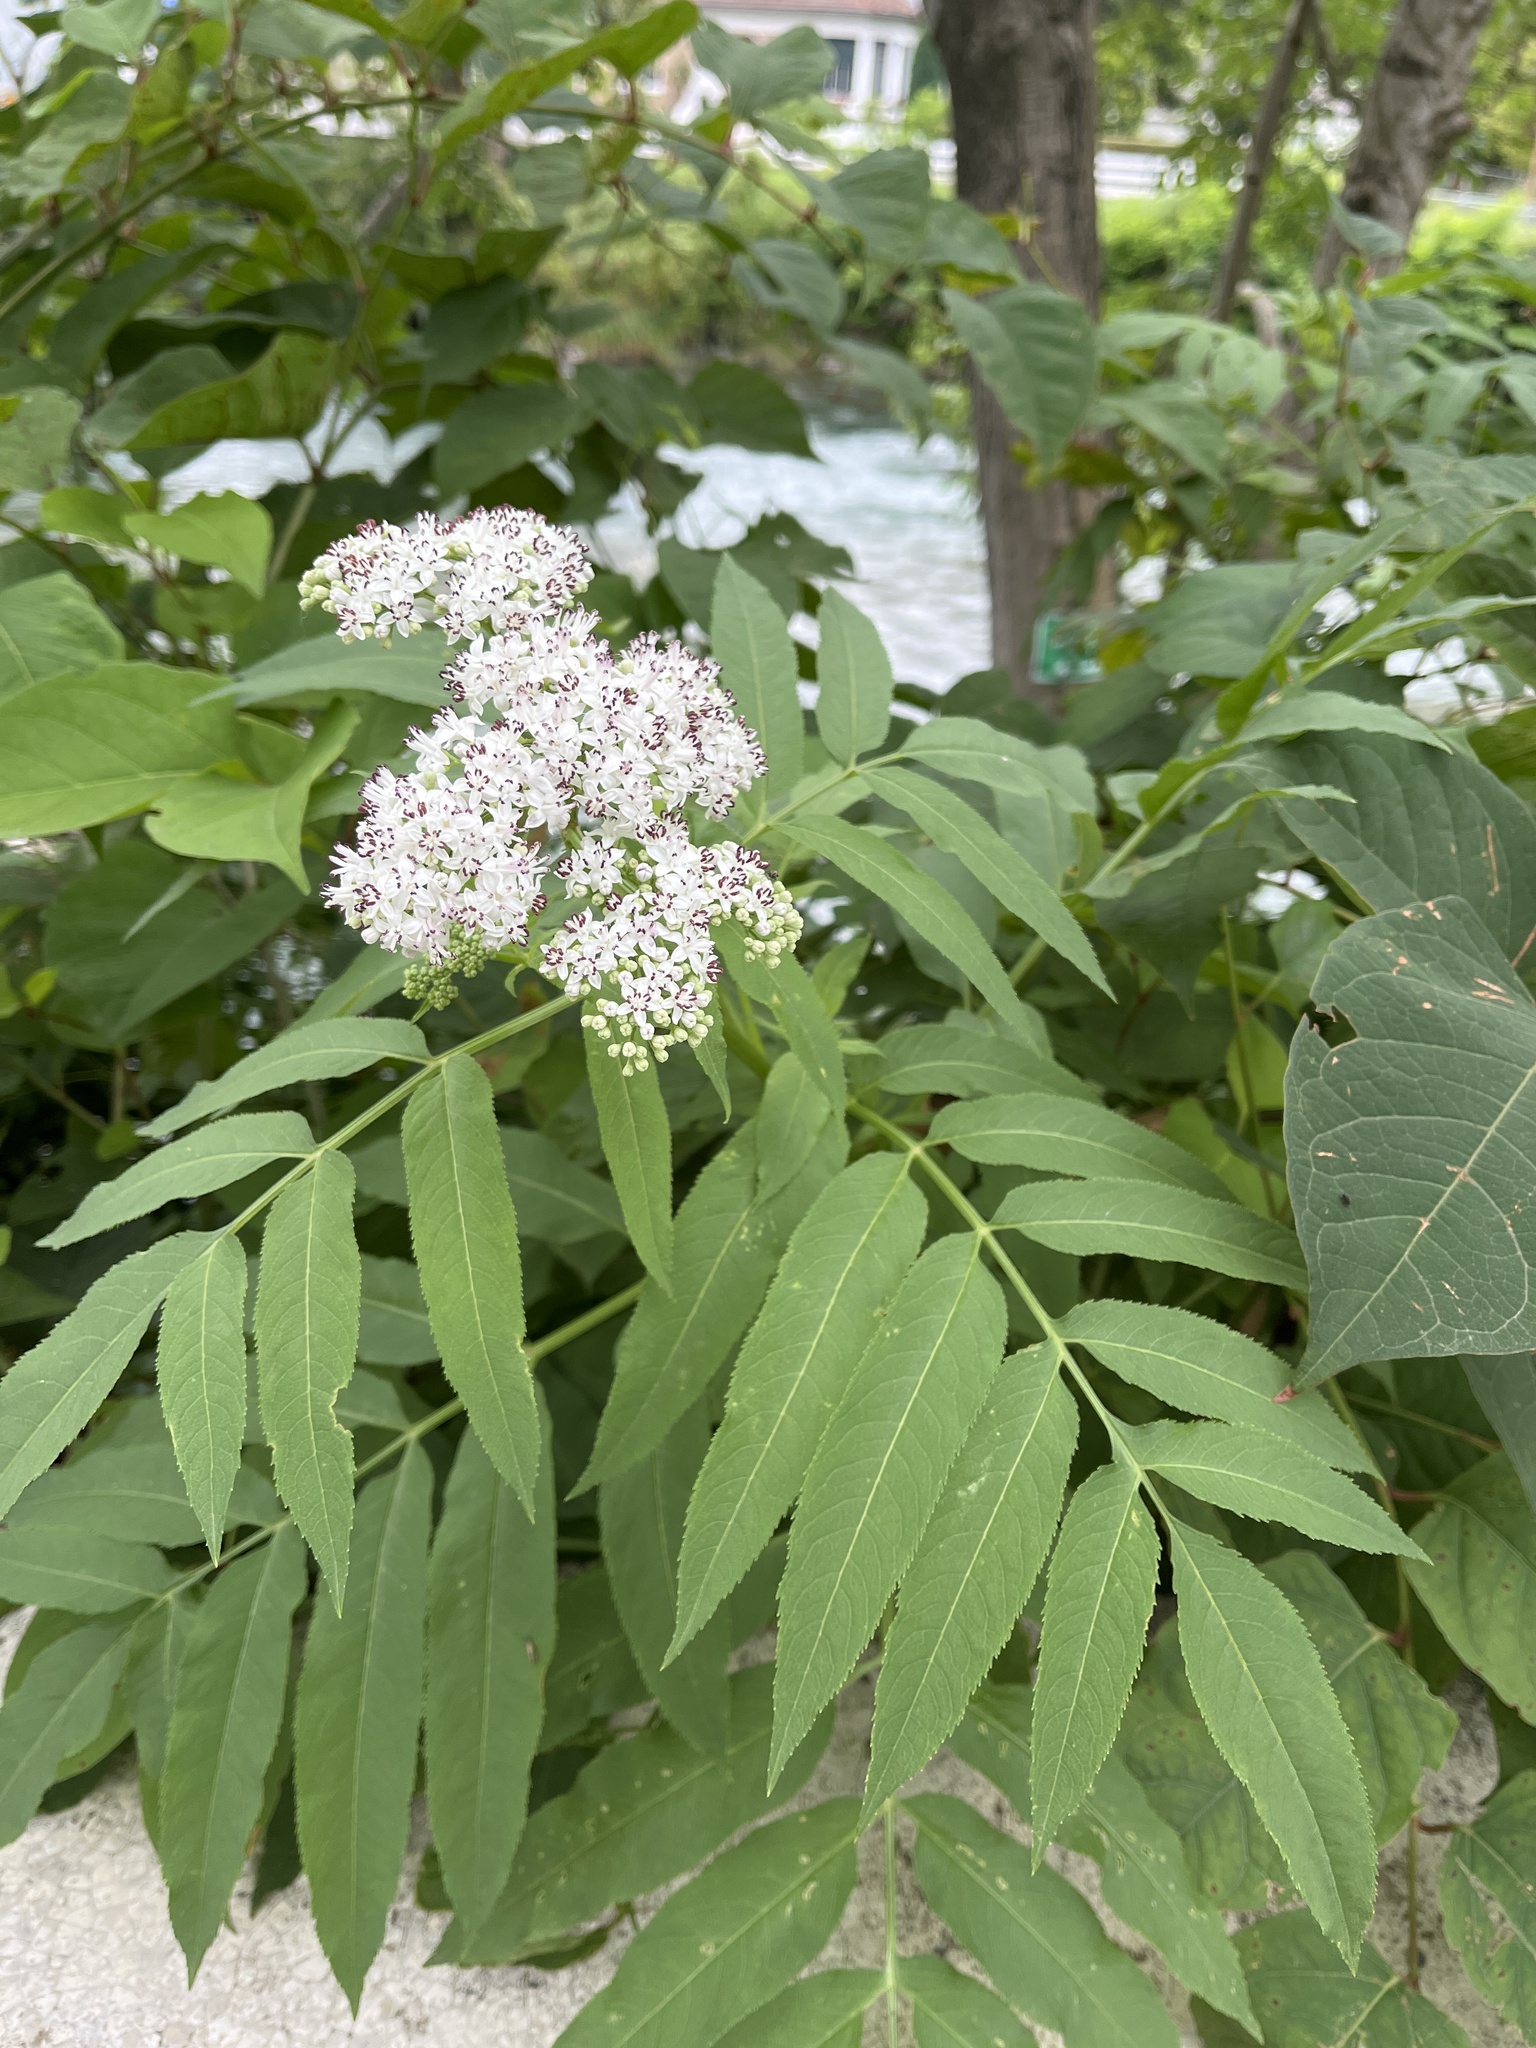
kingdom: Plantae
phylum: Tracheophyta
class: Magnoliopsida
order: Dipsacales
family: Viburnaceae
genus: Sambucus
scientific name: Sambucus ebulus
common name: Dwarf elder
